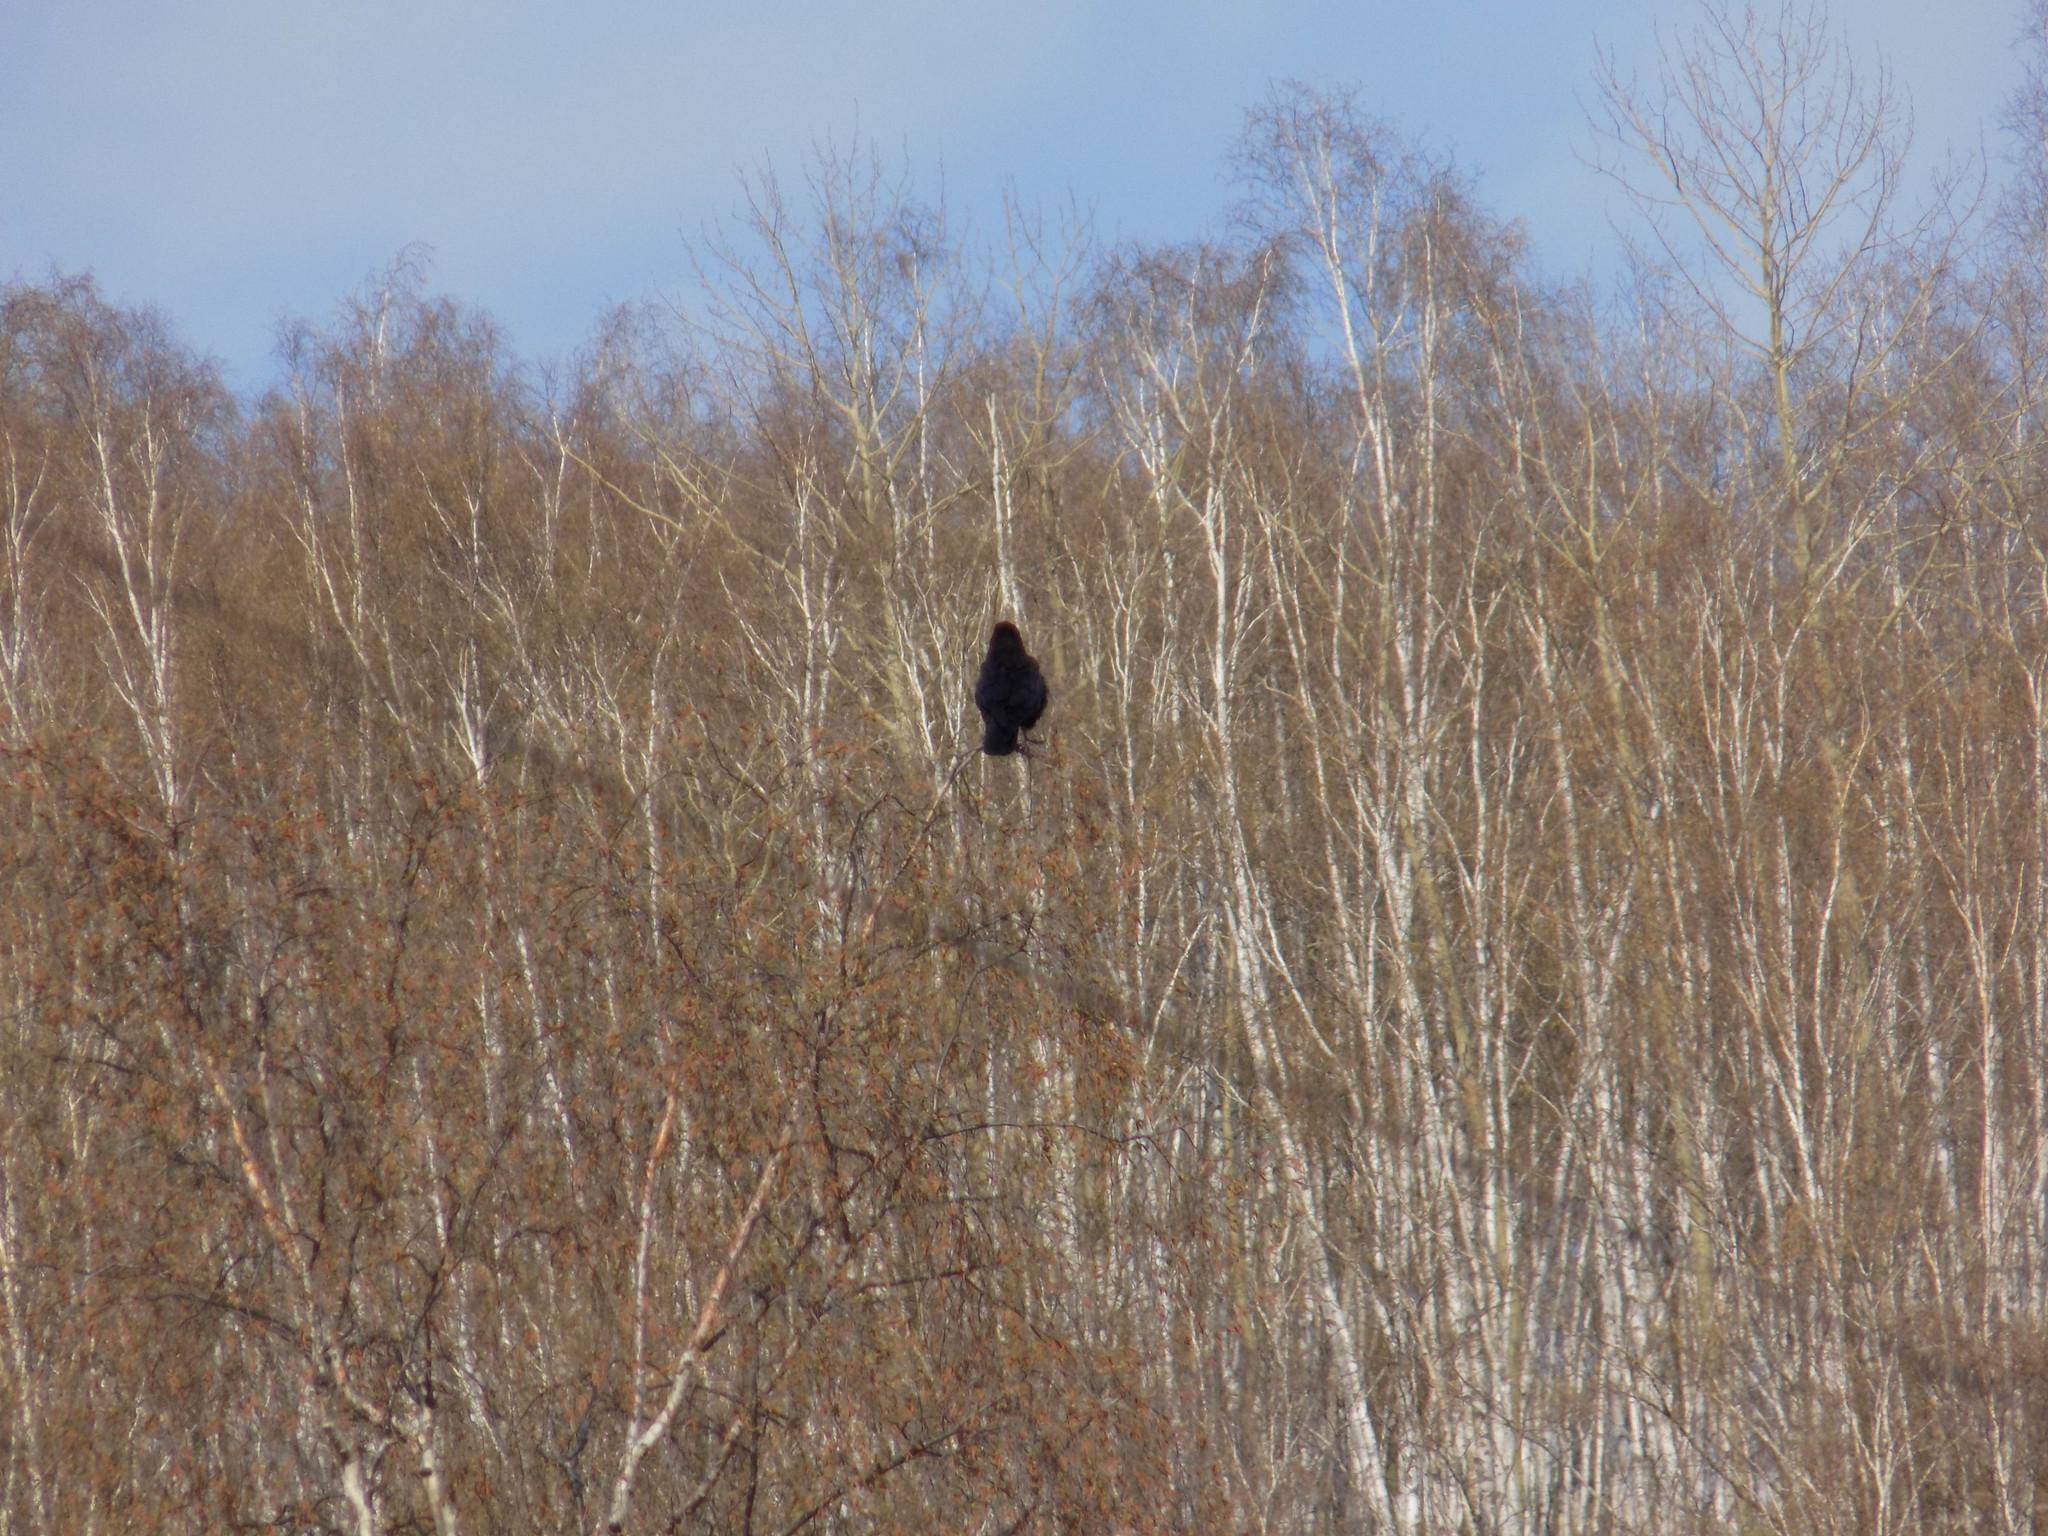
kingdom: Animalia
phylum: Chordata
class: Aves
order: Passeriformes
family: Corvidae
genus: Corvus
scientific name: Corvus corone
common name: Carrion crow
